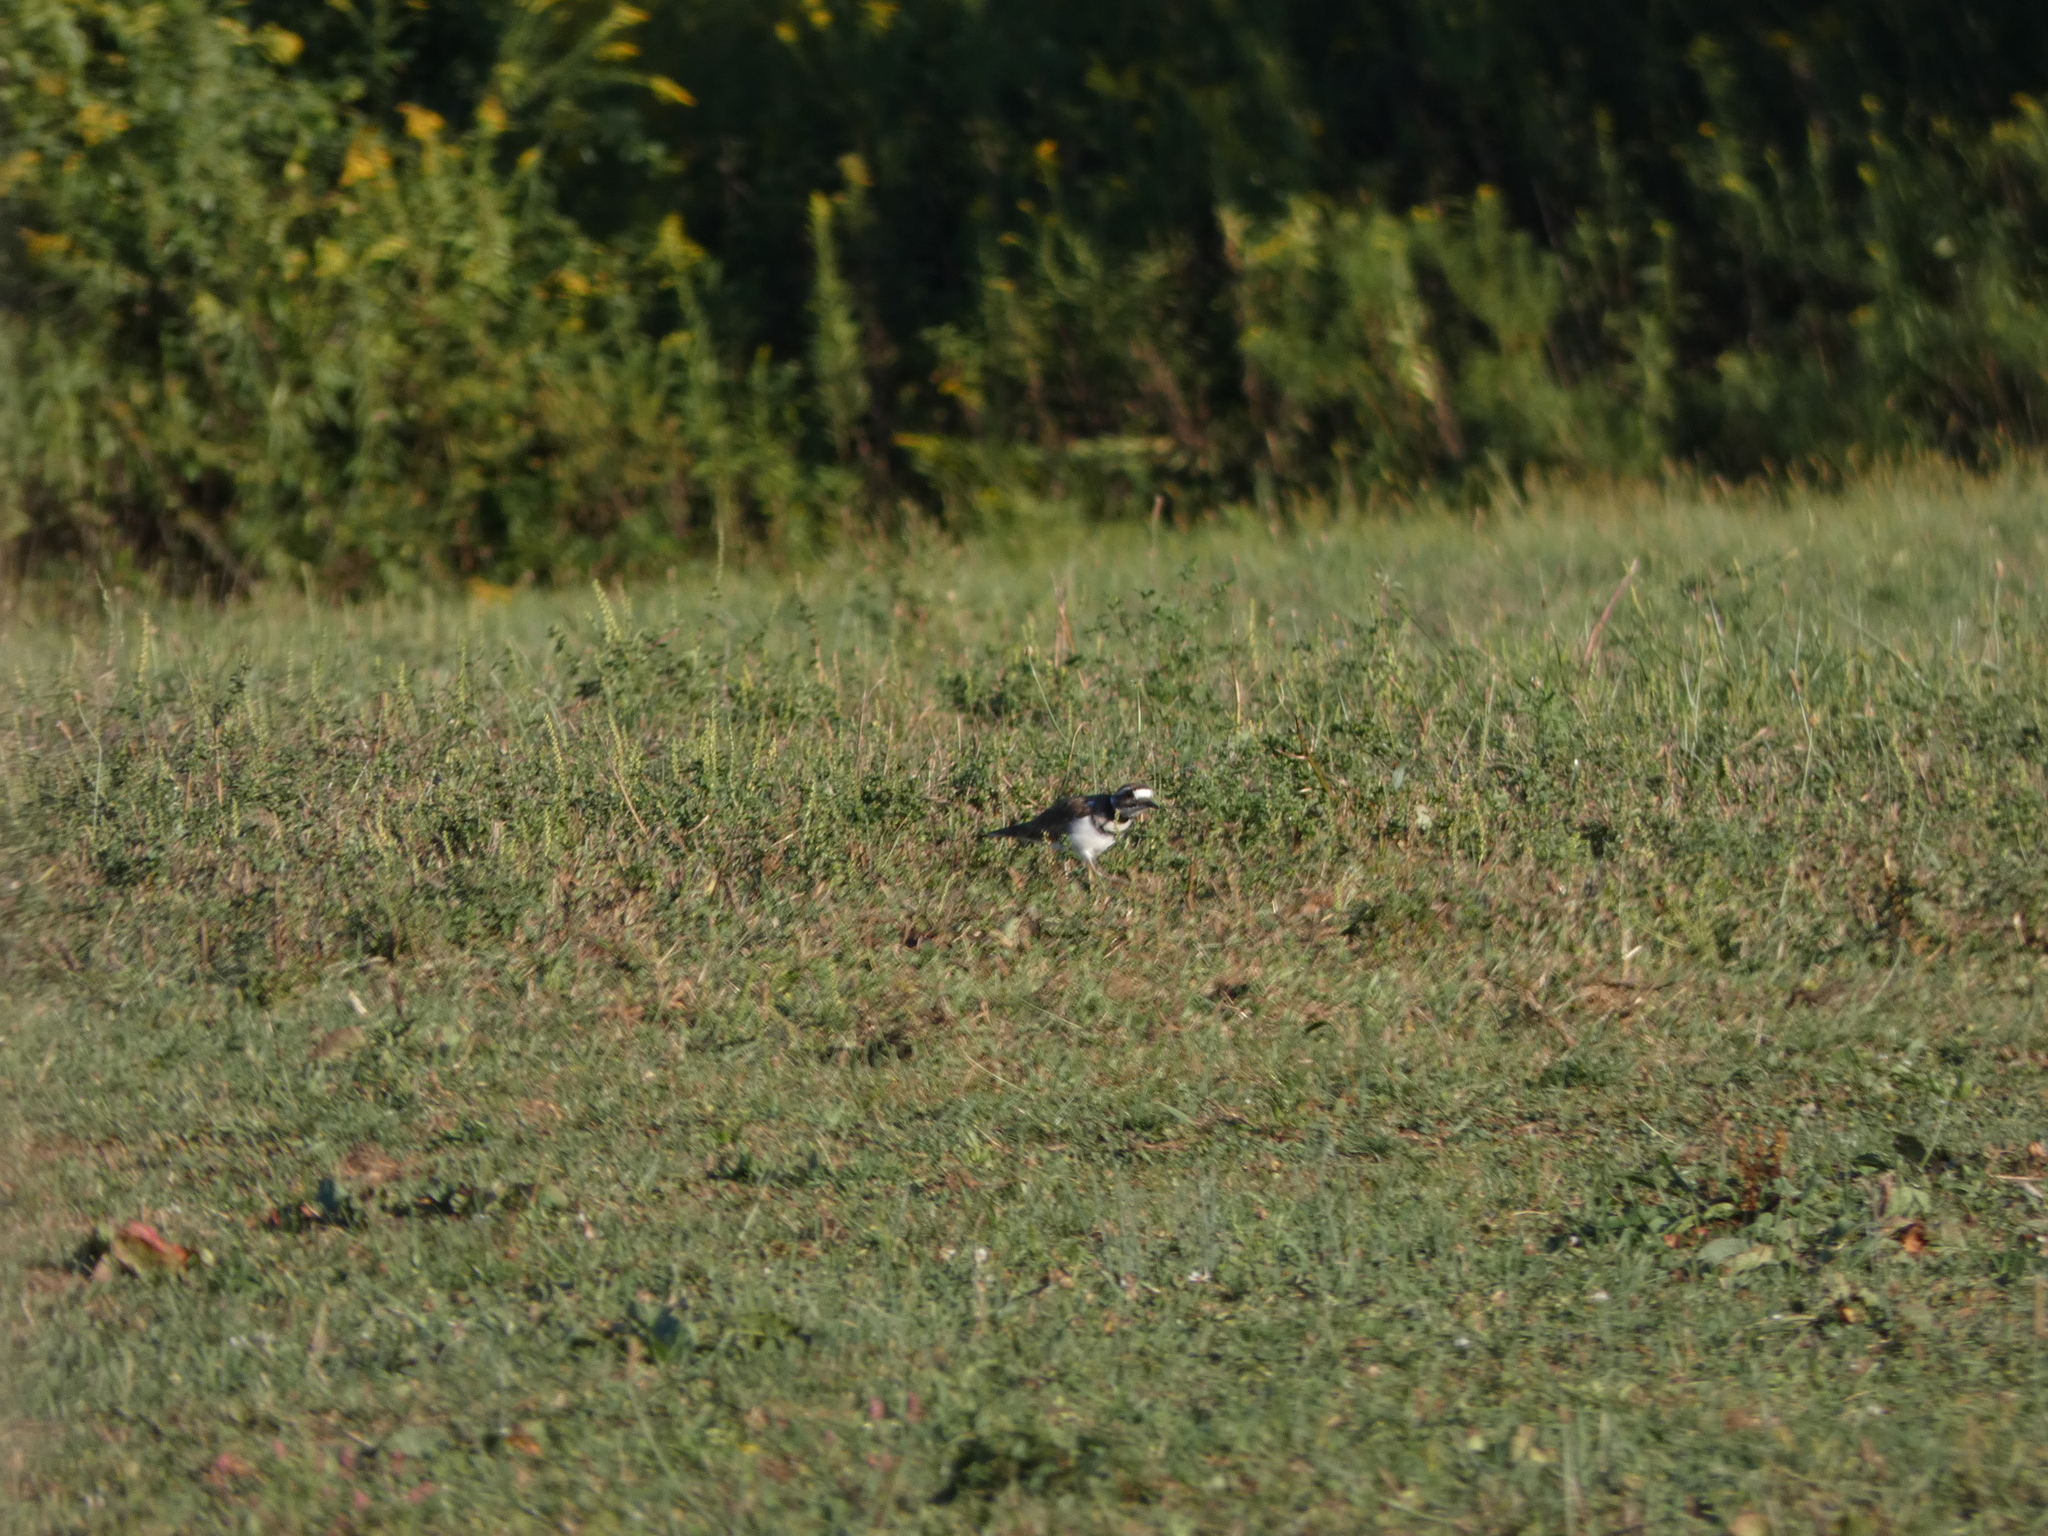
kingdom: Animalia
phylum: Chordata
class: Aves
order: Charadriiformes
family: Charadriidae
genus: Charadrius
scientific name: Charadrius vociferus
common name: Killdeer
